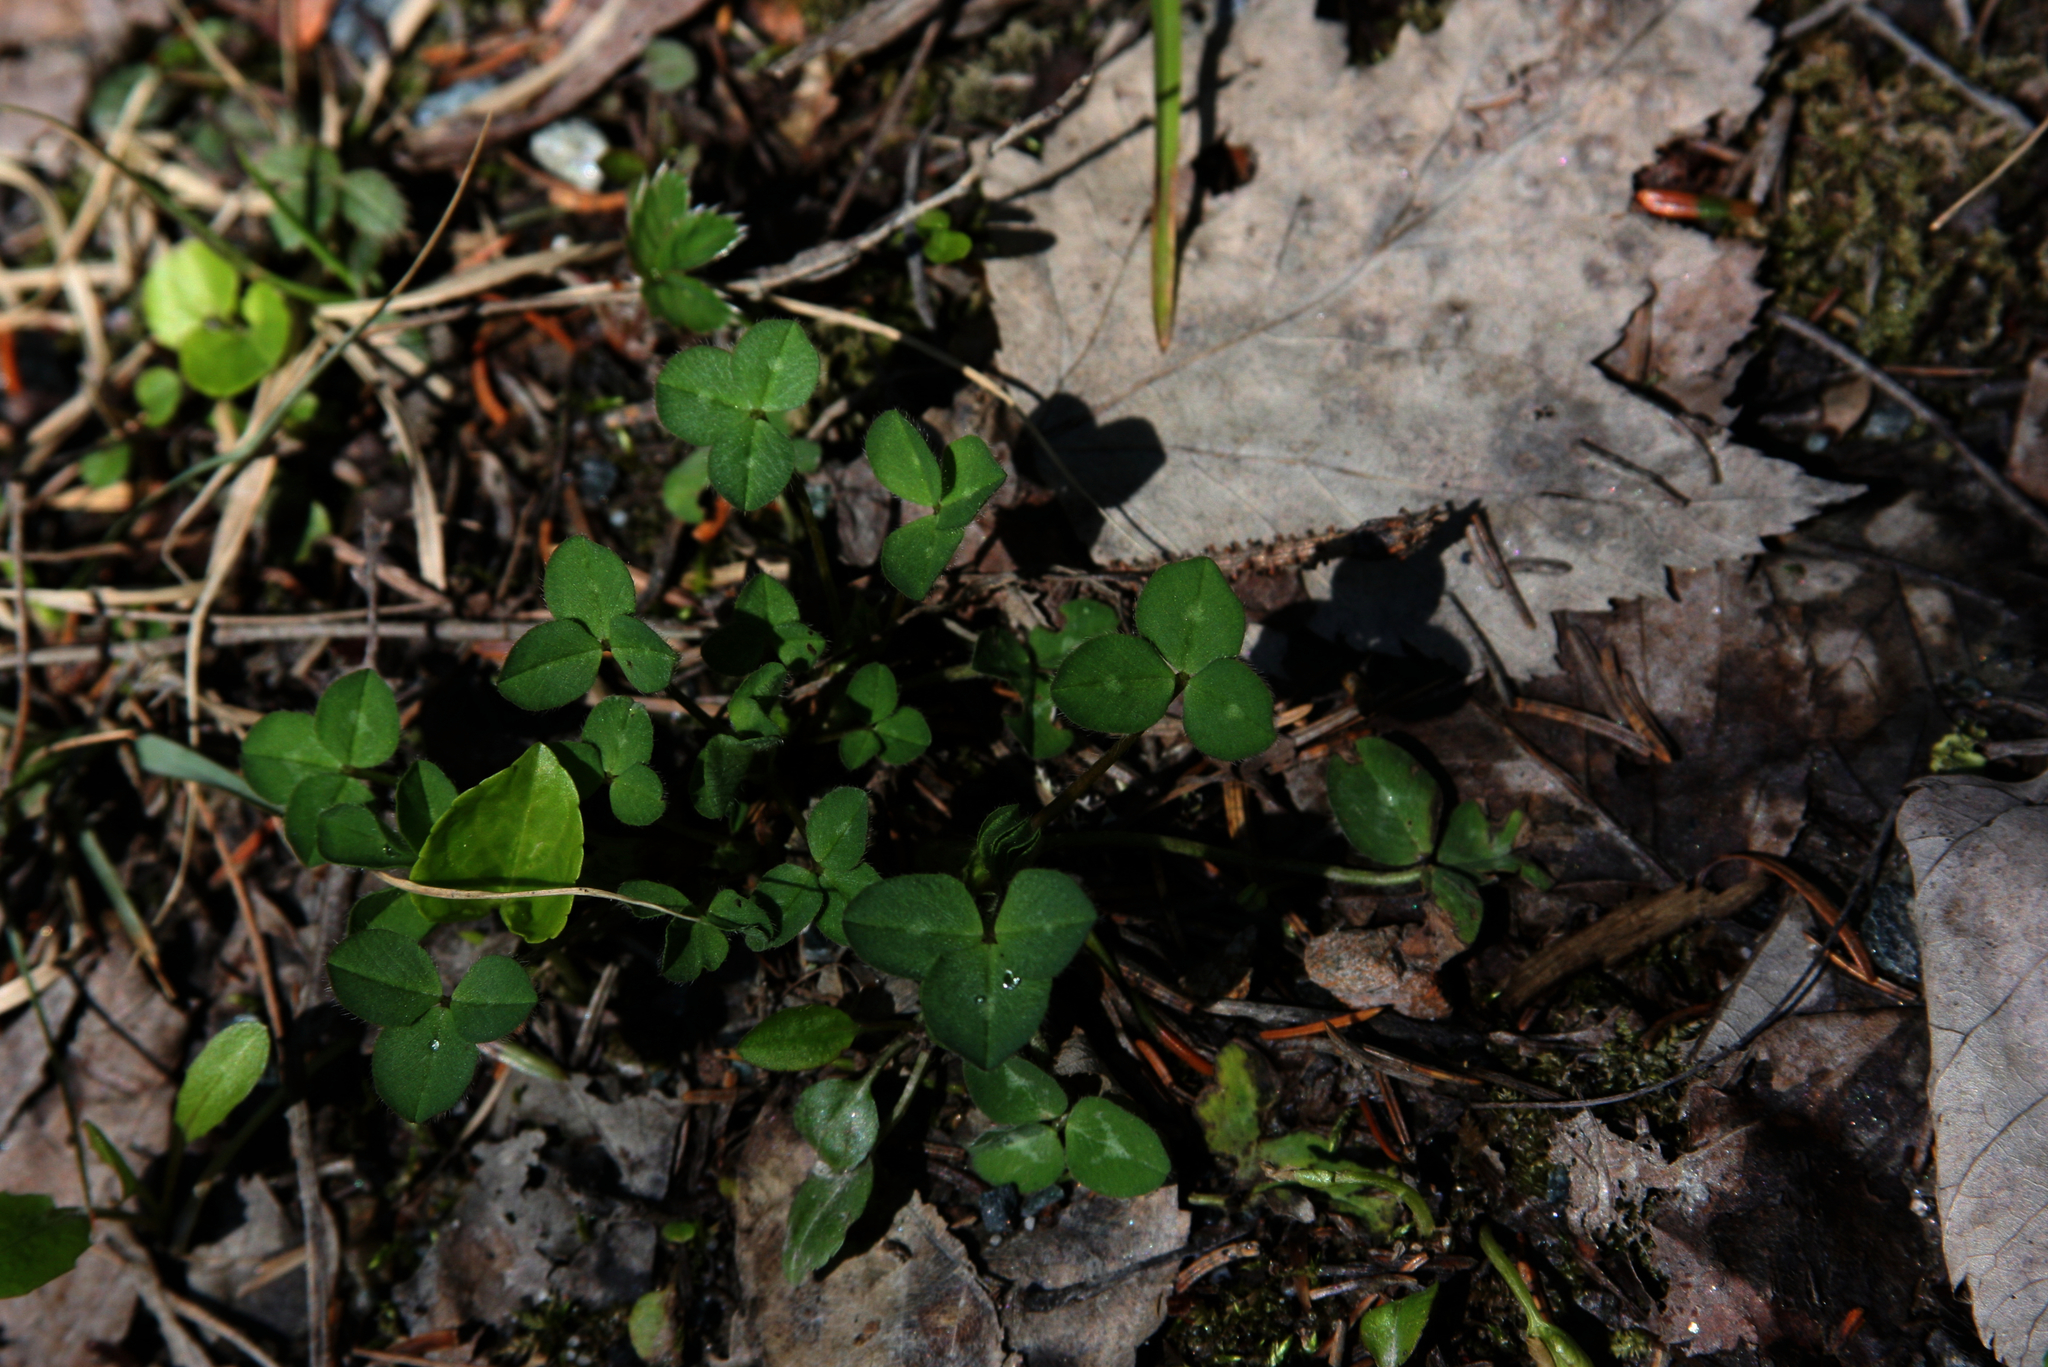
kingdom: Plantae
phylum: Tracheophyta
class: Magnoliopsida
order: Fabales
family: Fabaceae
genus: Trifolium
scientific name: Trifolium pratense
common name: Red clover
